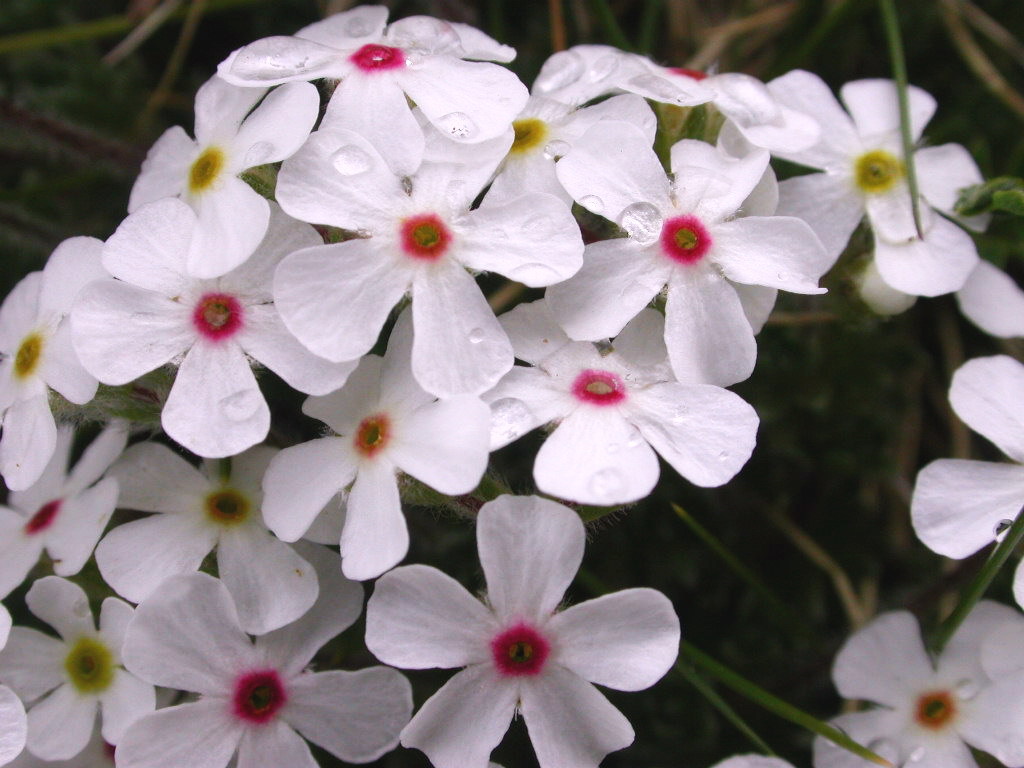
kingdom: Plantae
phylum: Tracheophyta
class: Magnoliopsida
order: Ericales
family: Primulaceae
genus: Androsace
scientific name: Androsace villosa
